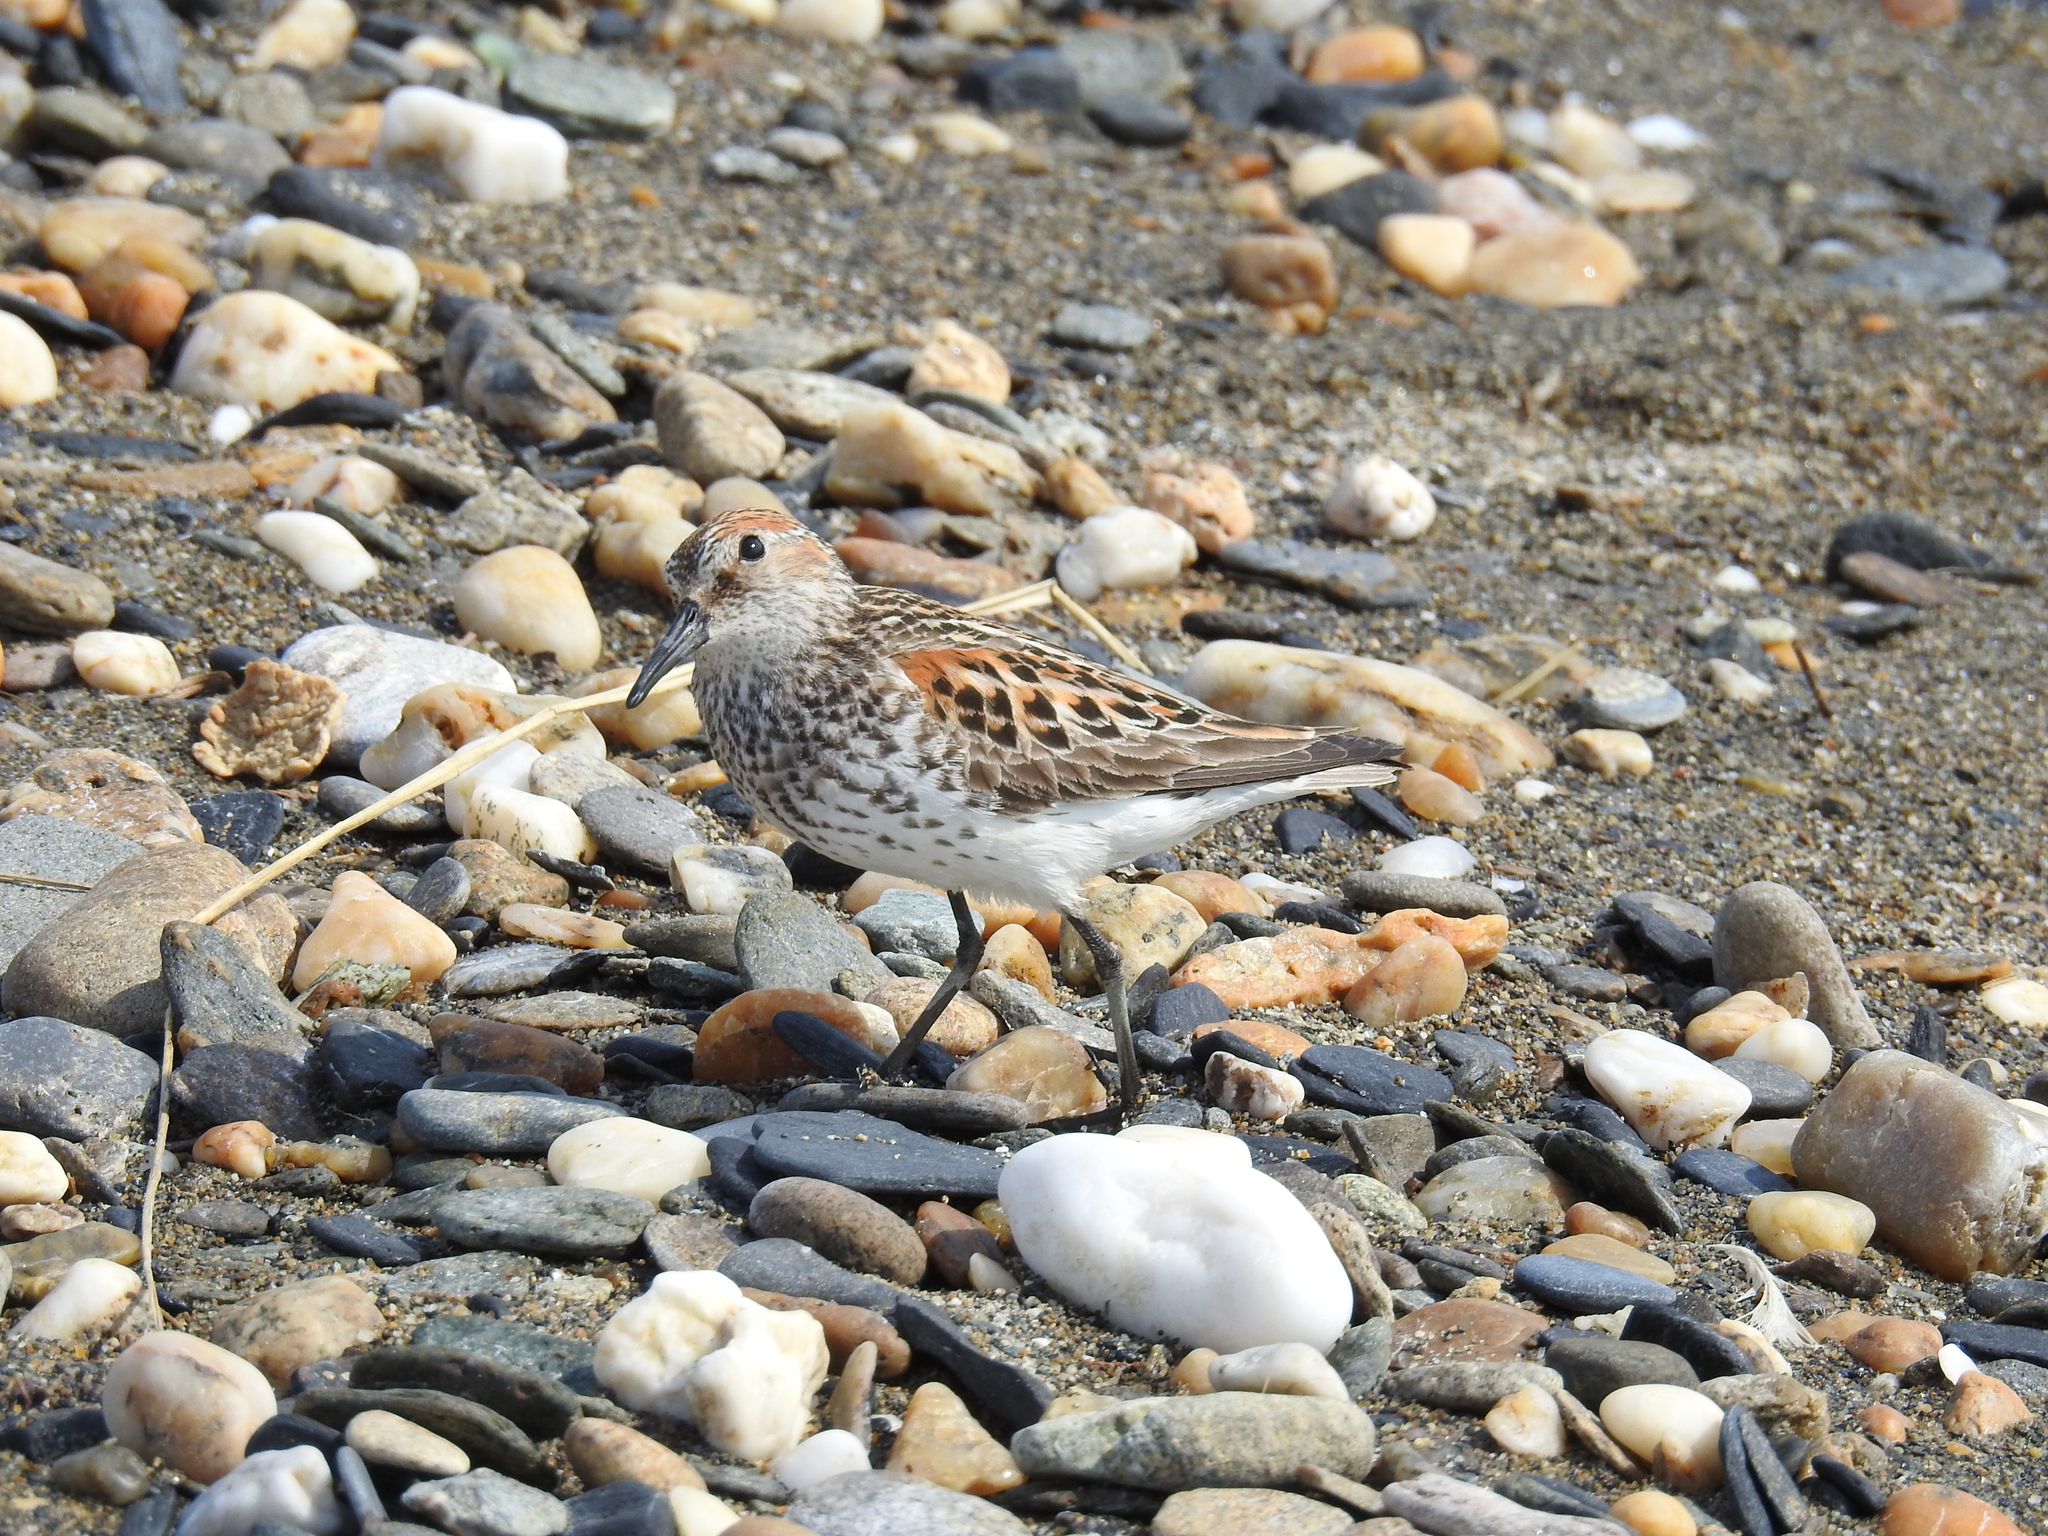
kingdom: Animalia
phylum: Chordata
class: Aves
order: Charadriiformes
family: Scolopacidae
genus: Calidris
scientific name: Calidris mauri
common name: Western sandpiper
